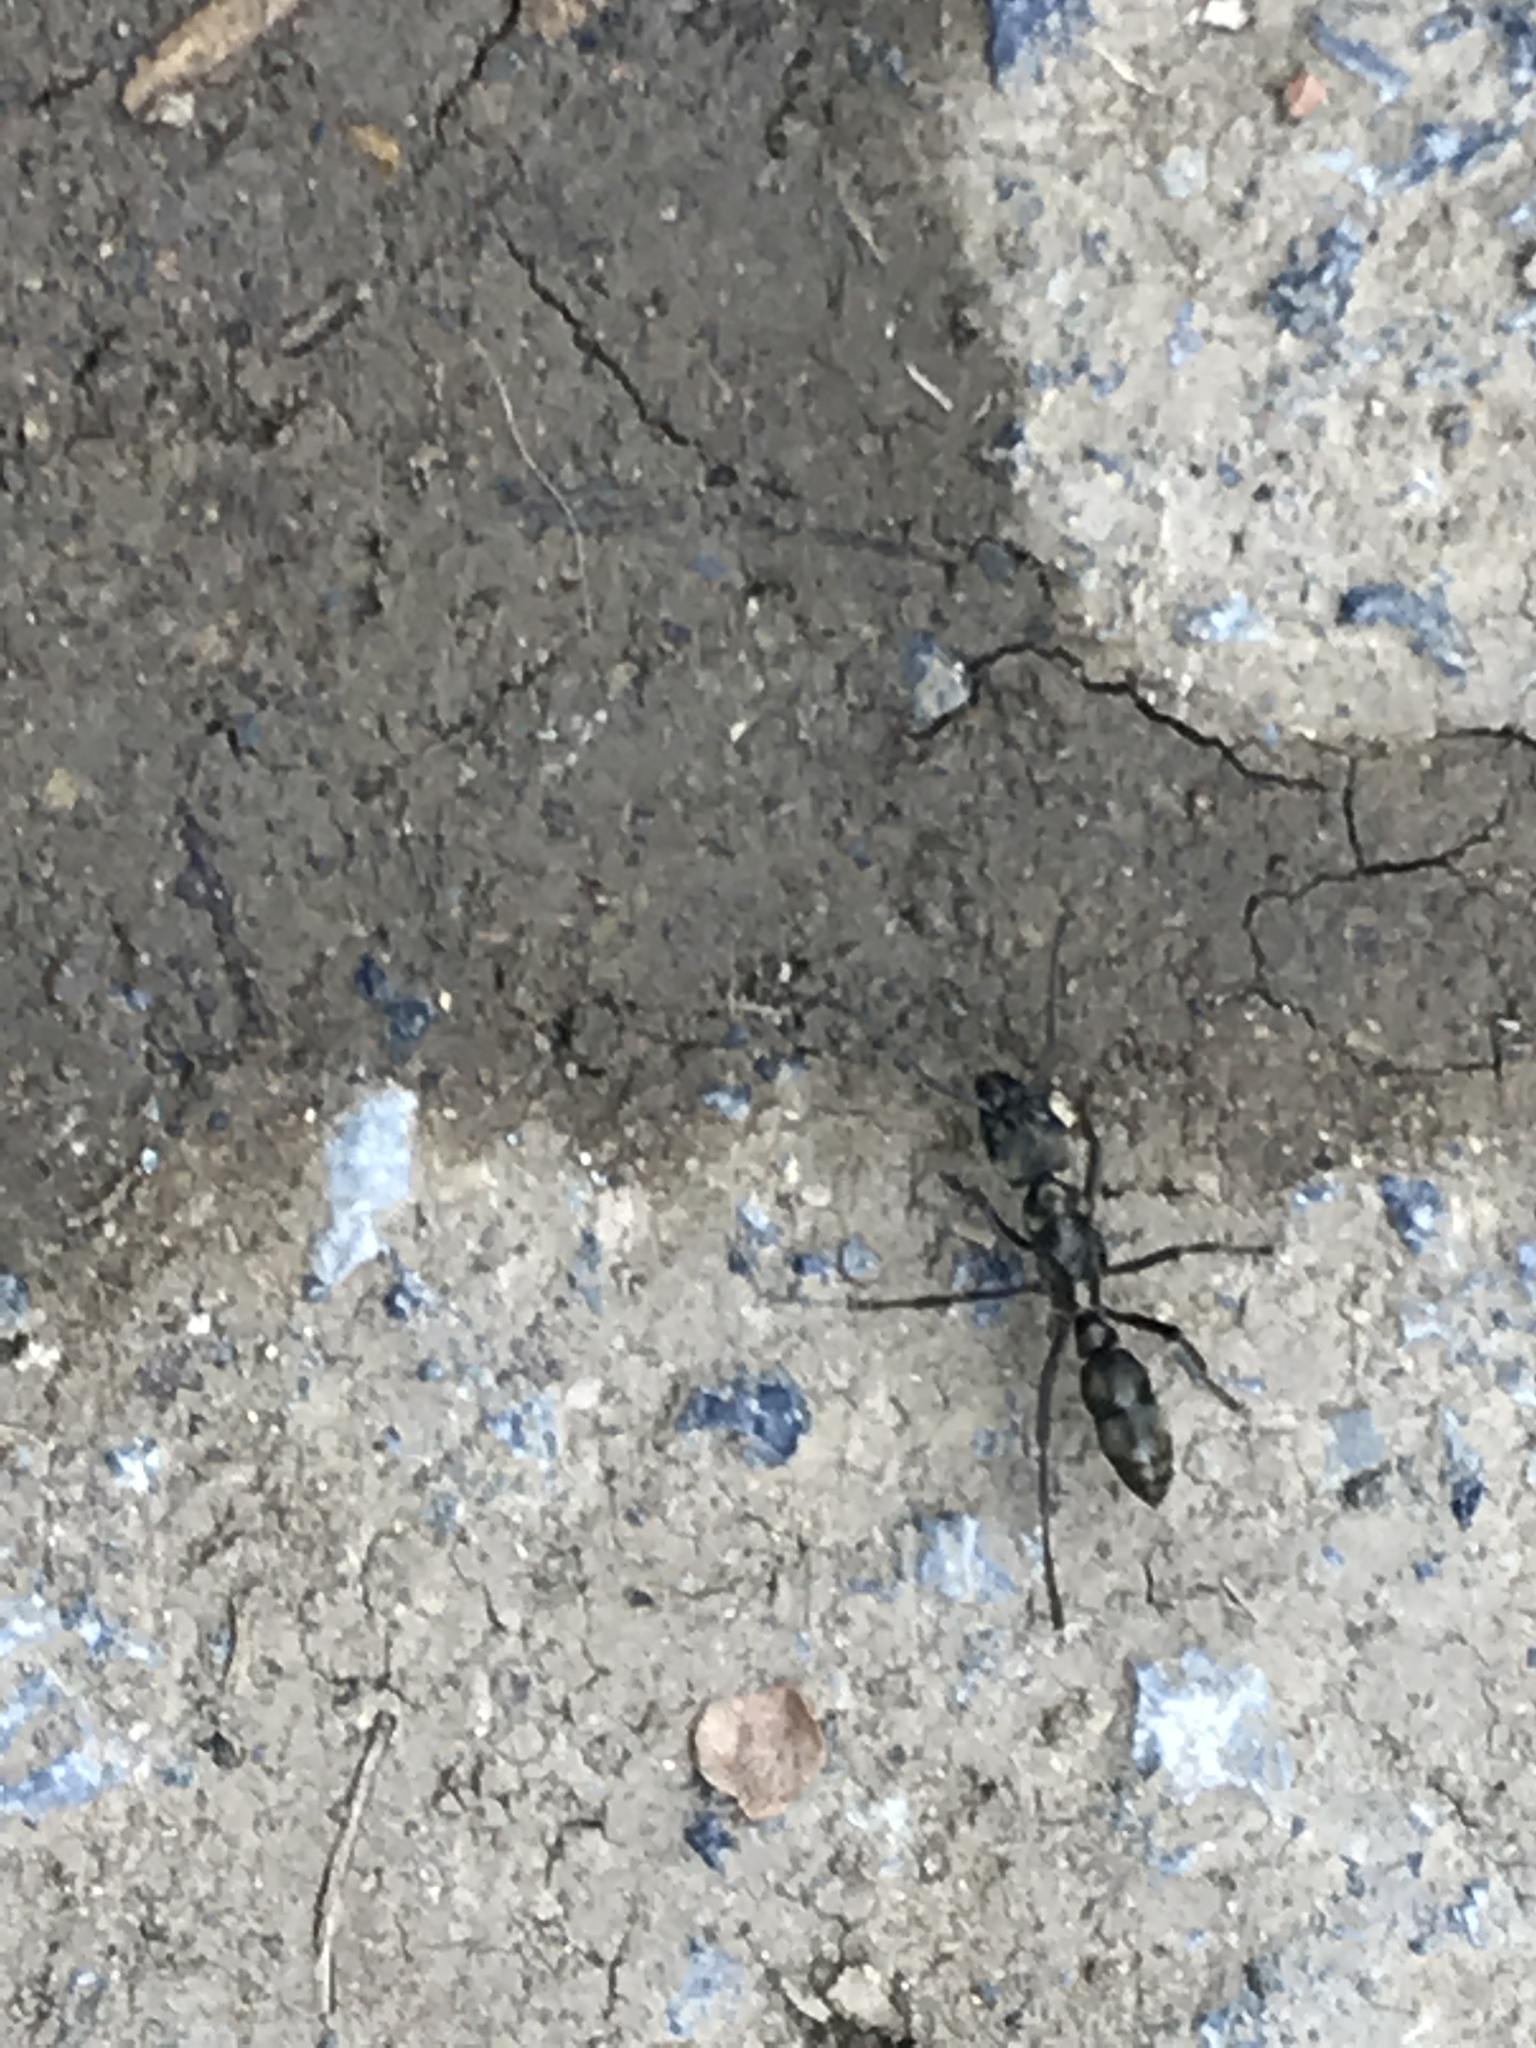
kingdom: Animalia
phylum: Arthropoda
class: Insecta
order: Hymenoptera
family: Formicidae
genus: Pachycondyla
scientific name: Pachycondyla villosa
